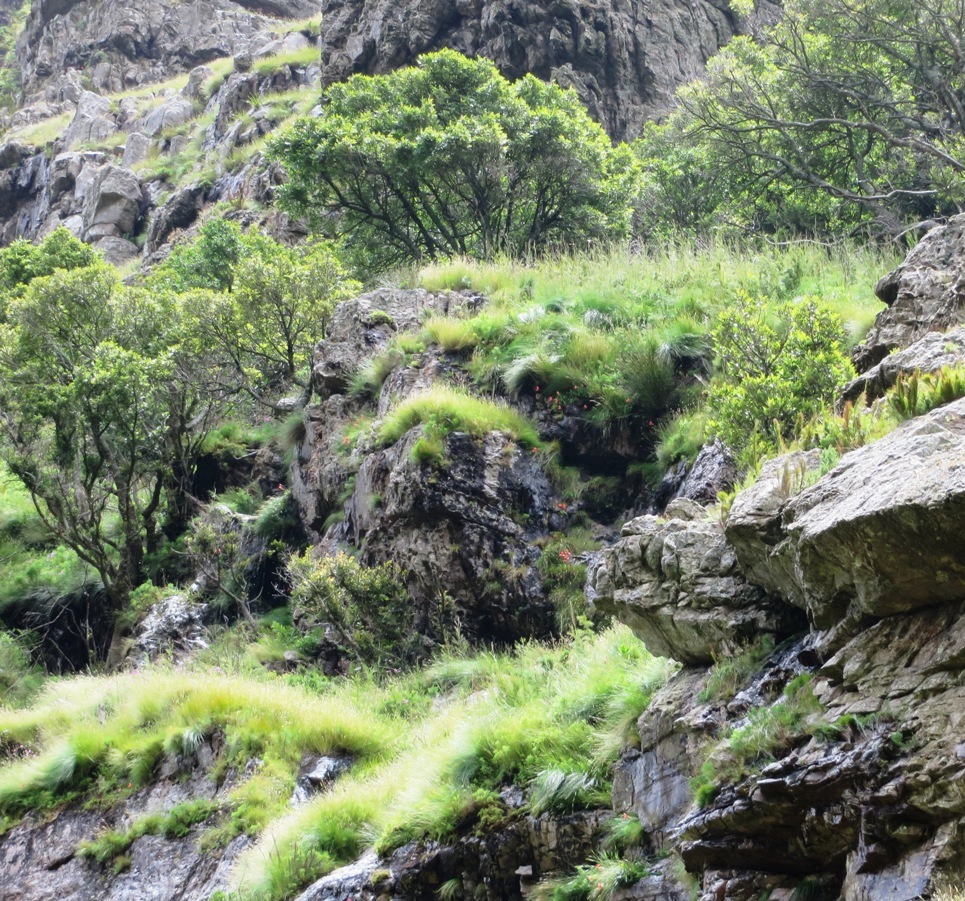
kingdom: Plantae
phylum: Tracheophyta
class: Liliopsida
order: Asparagales
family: Orchidaceae
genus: Disa
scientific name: Disa uniflora
